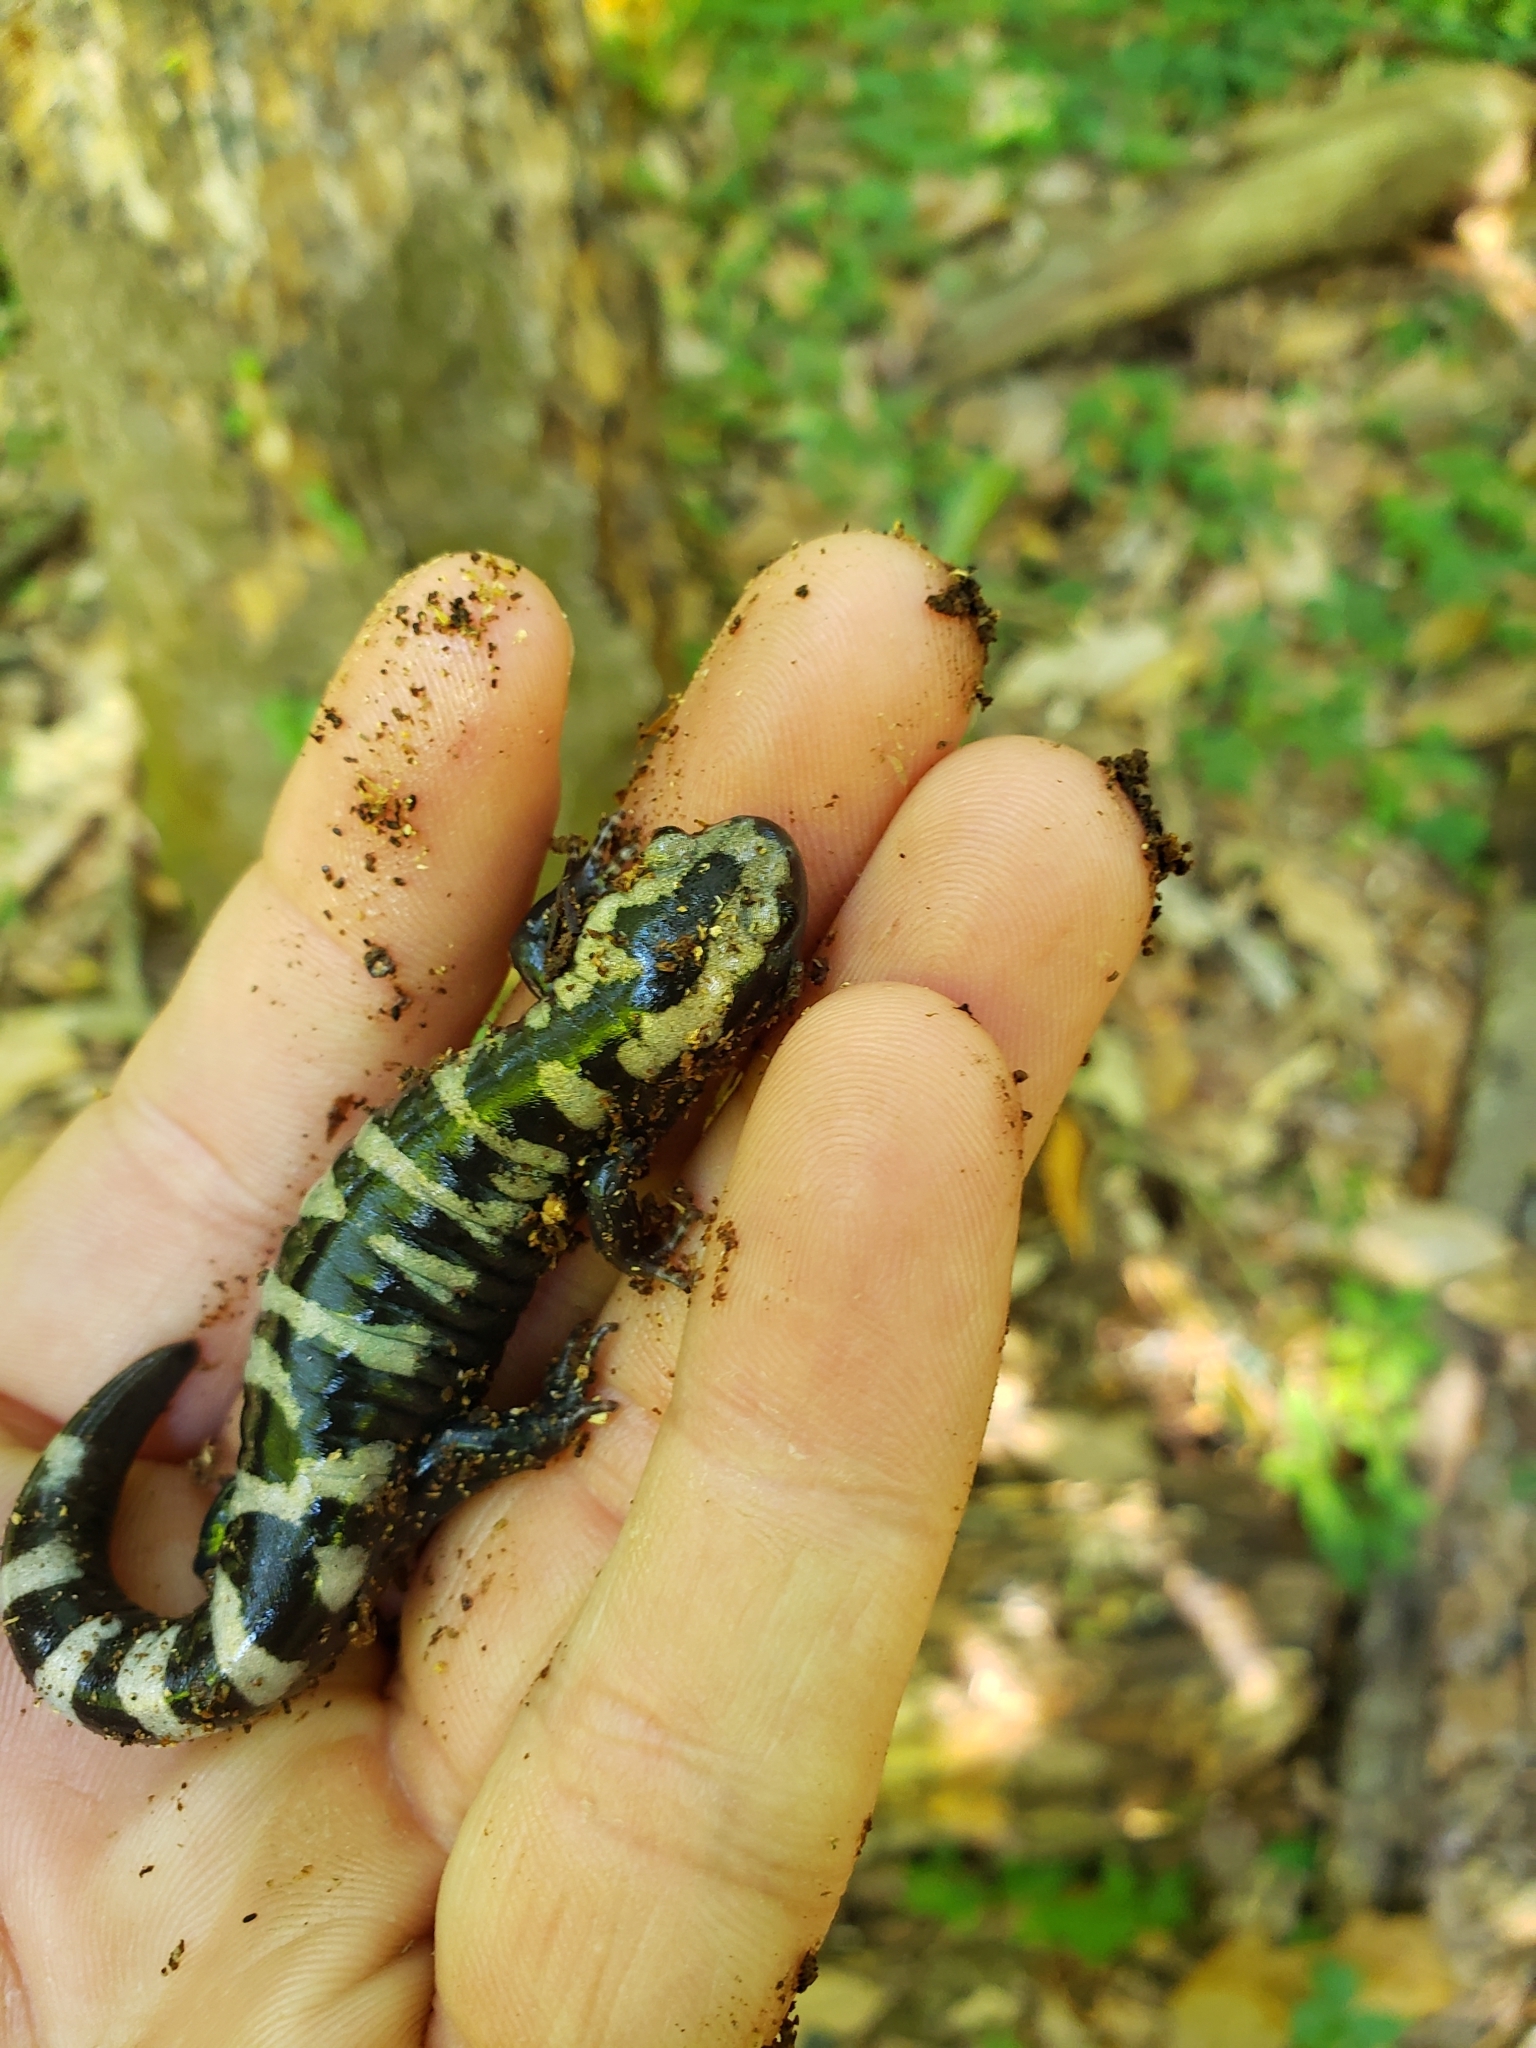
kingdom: Animalia
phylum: Chordata
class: Amphibia
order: Caudata
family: Ambystomatidae
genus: Ambystoma
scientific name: Ambystoma opacum
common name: Marbled salamander
